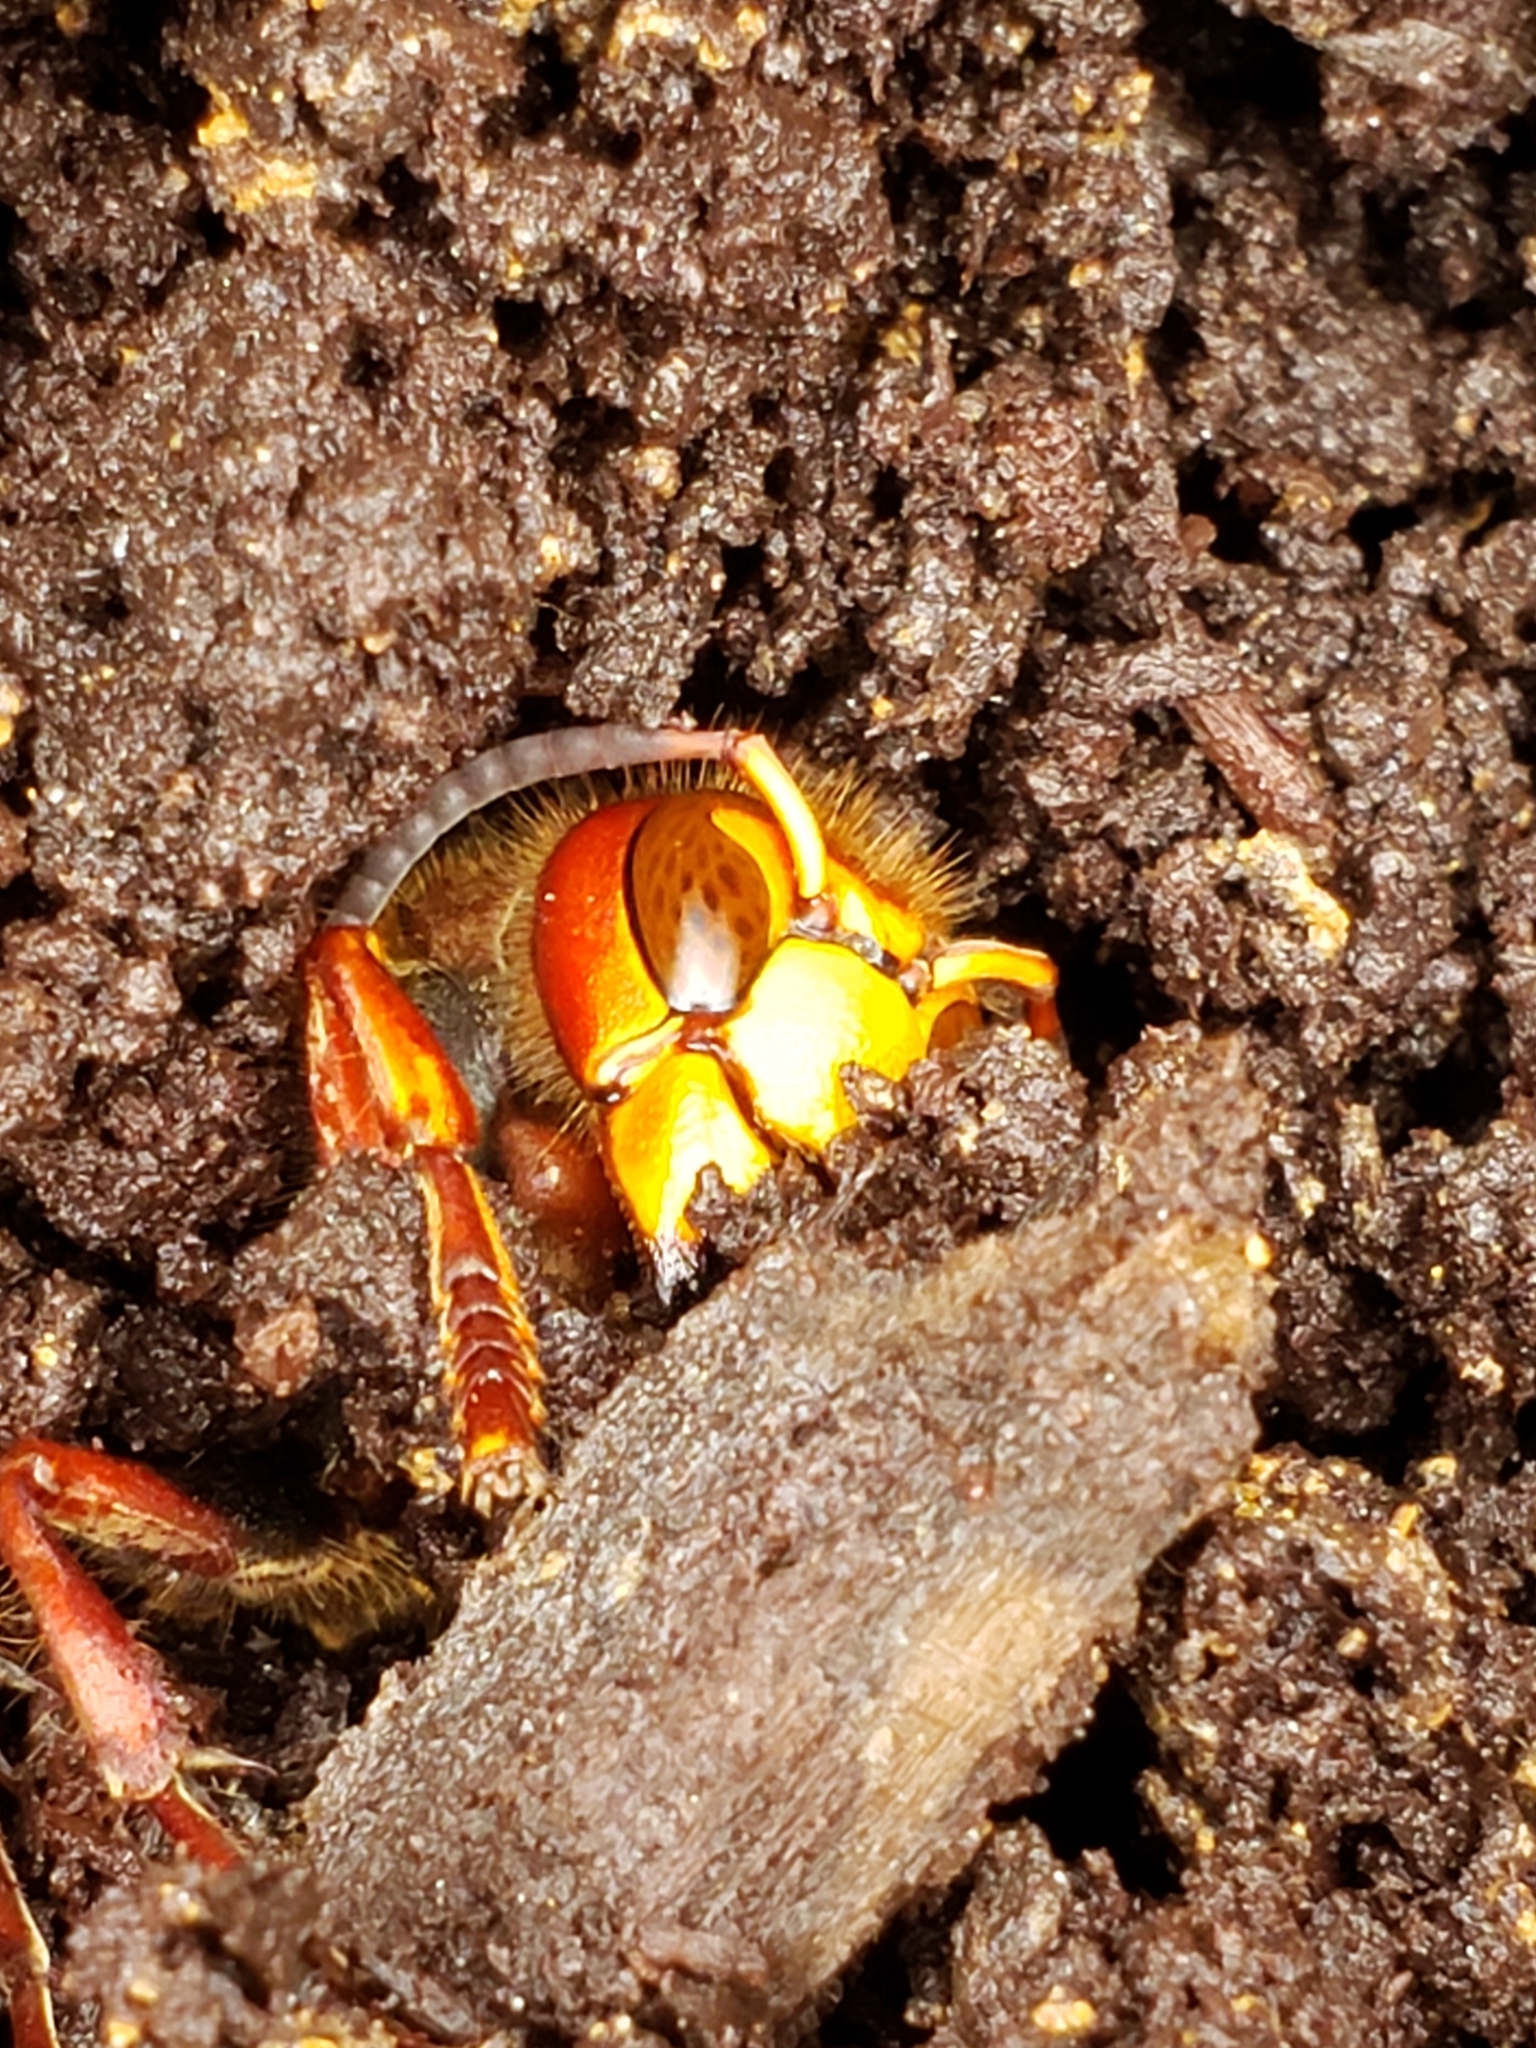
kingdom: Animalia
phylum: Arthropoda
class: Insecta
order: Hymenoptera
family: Vespidae
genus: Vespa
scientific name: Vespa crabro
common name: Hornet
